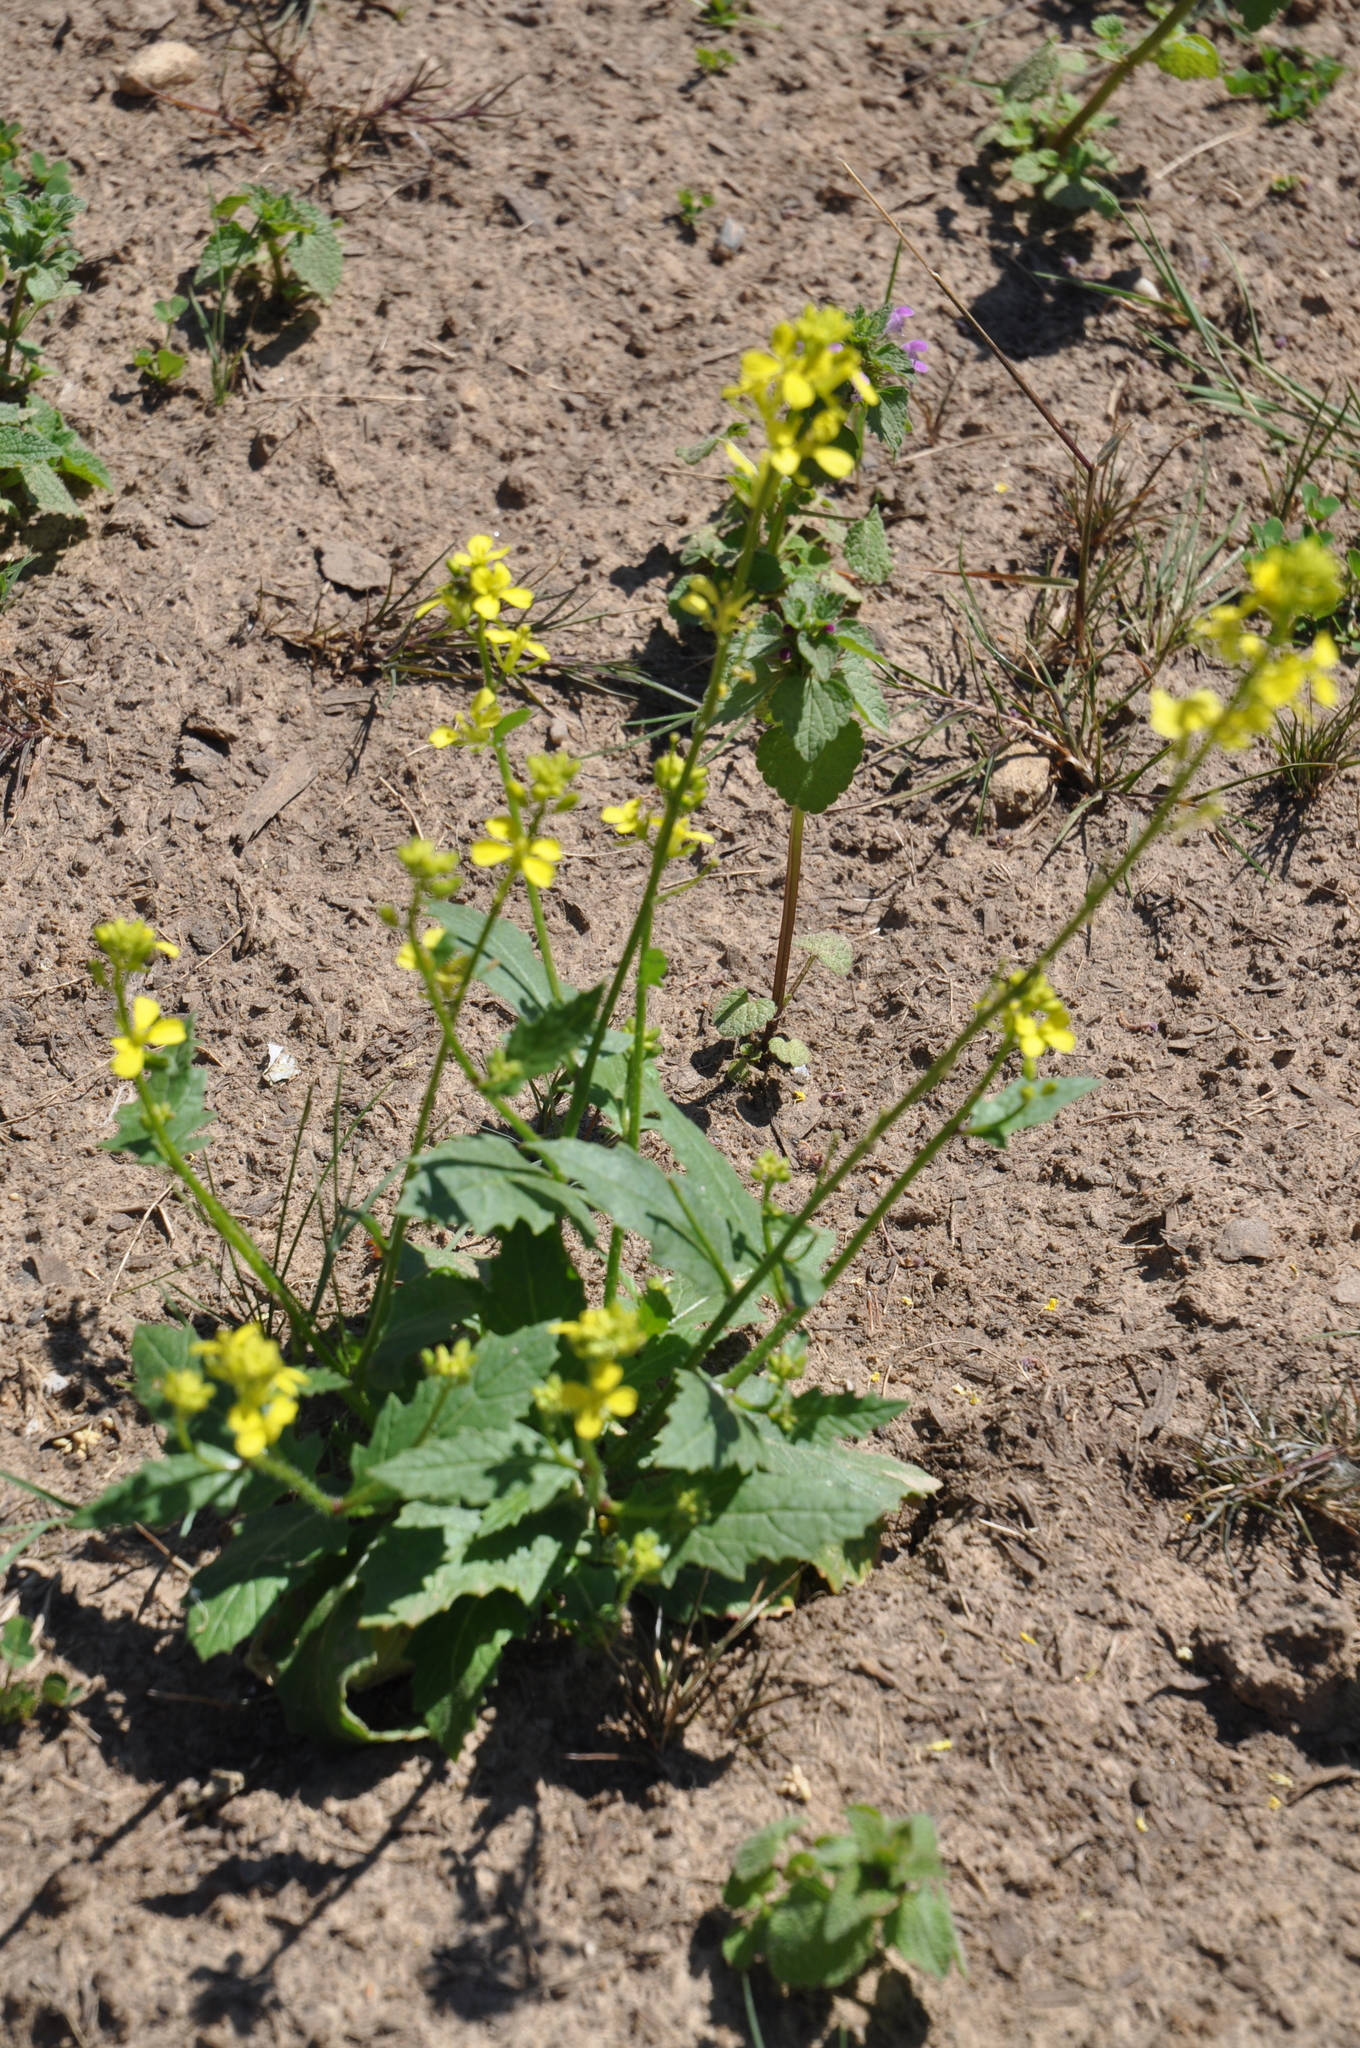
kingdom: Plantae
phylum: Tracheophyta
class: Magnoliopsida
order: Brassicales
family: Brassicaceae
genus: Sinapis
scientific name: Sinapis arvensis
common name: Charlock
